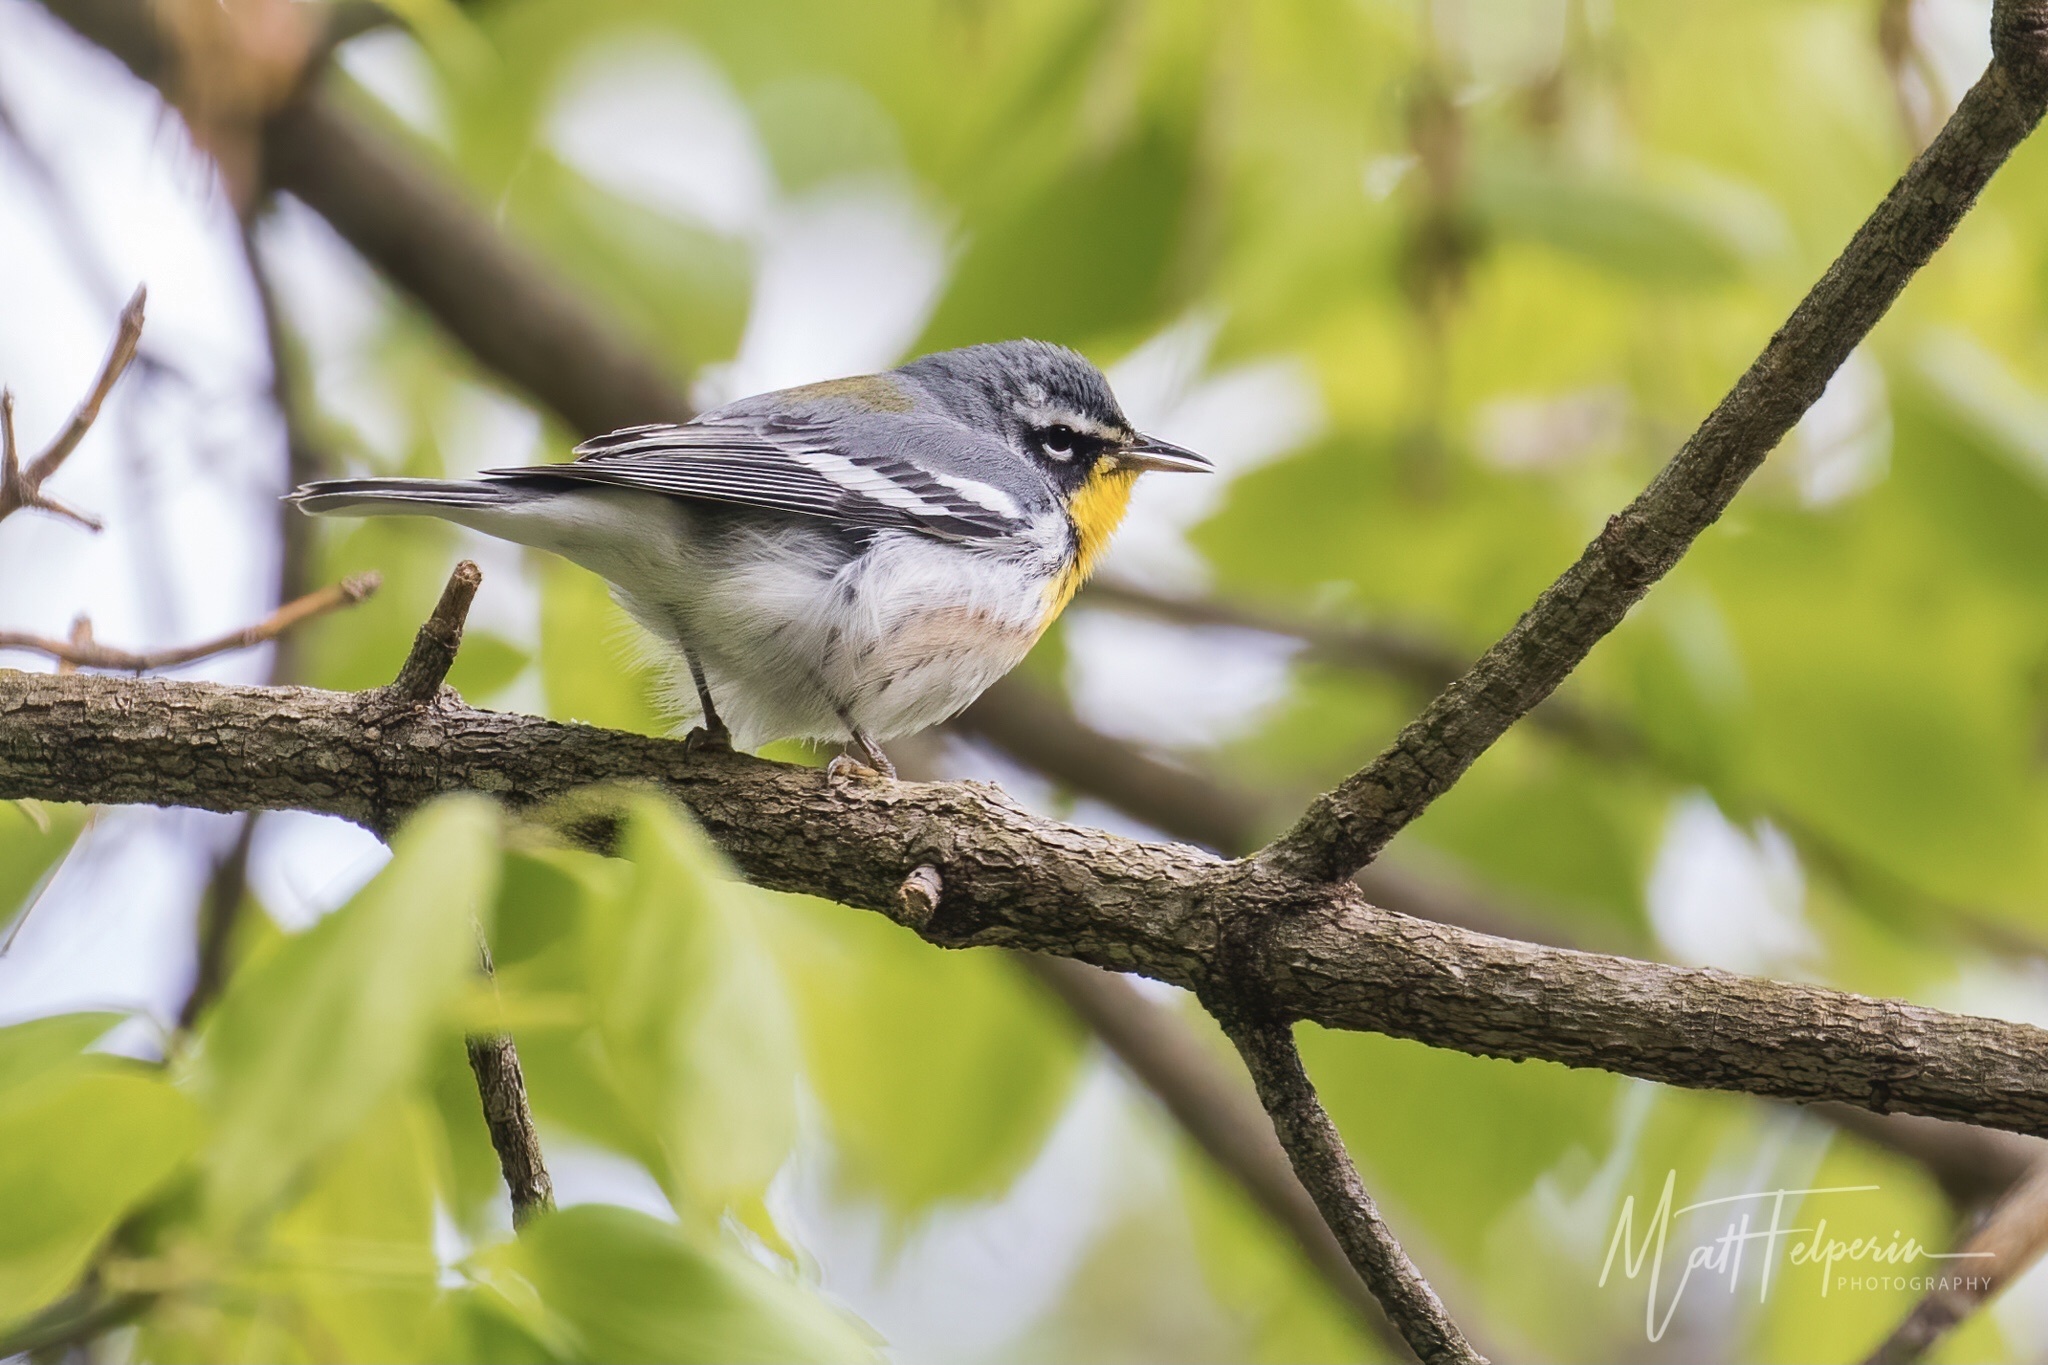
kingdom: Animalia
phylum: Chordata
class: Aves
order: Passeriformes
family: Parulidae
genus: Setophaga
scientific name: Setophaga
